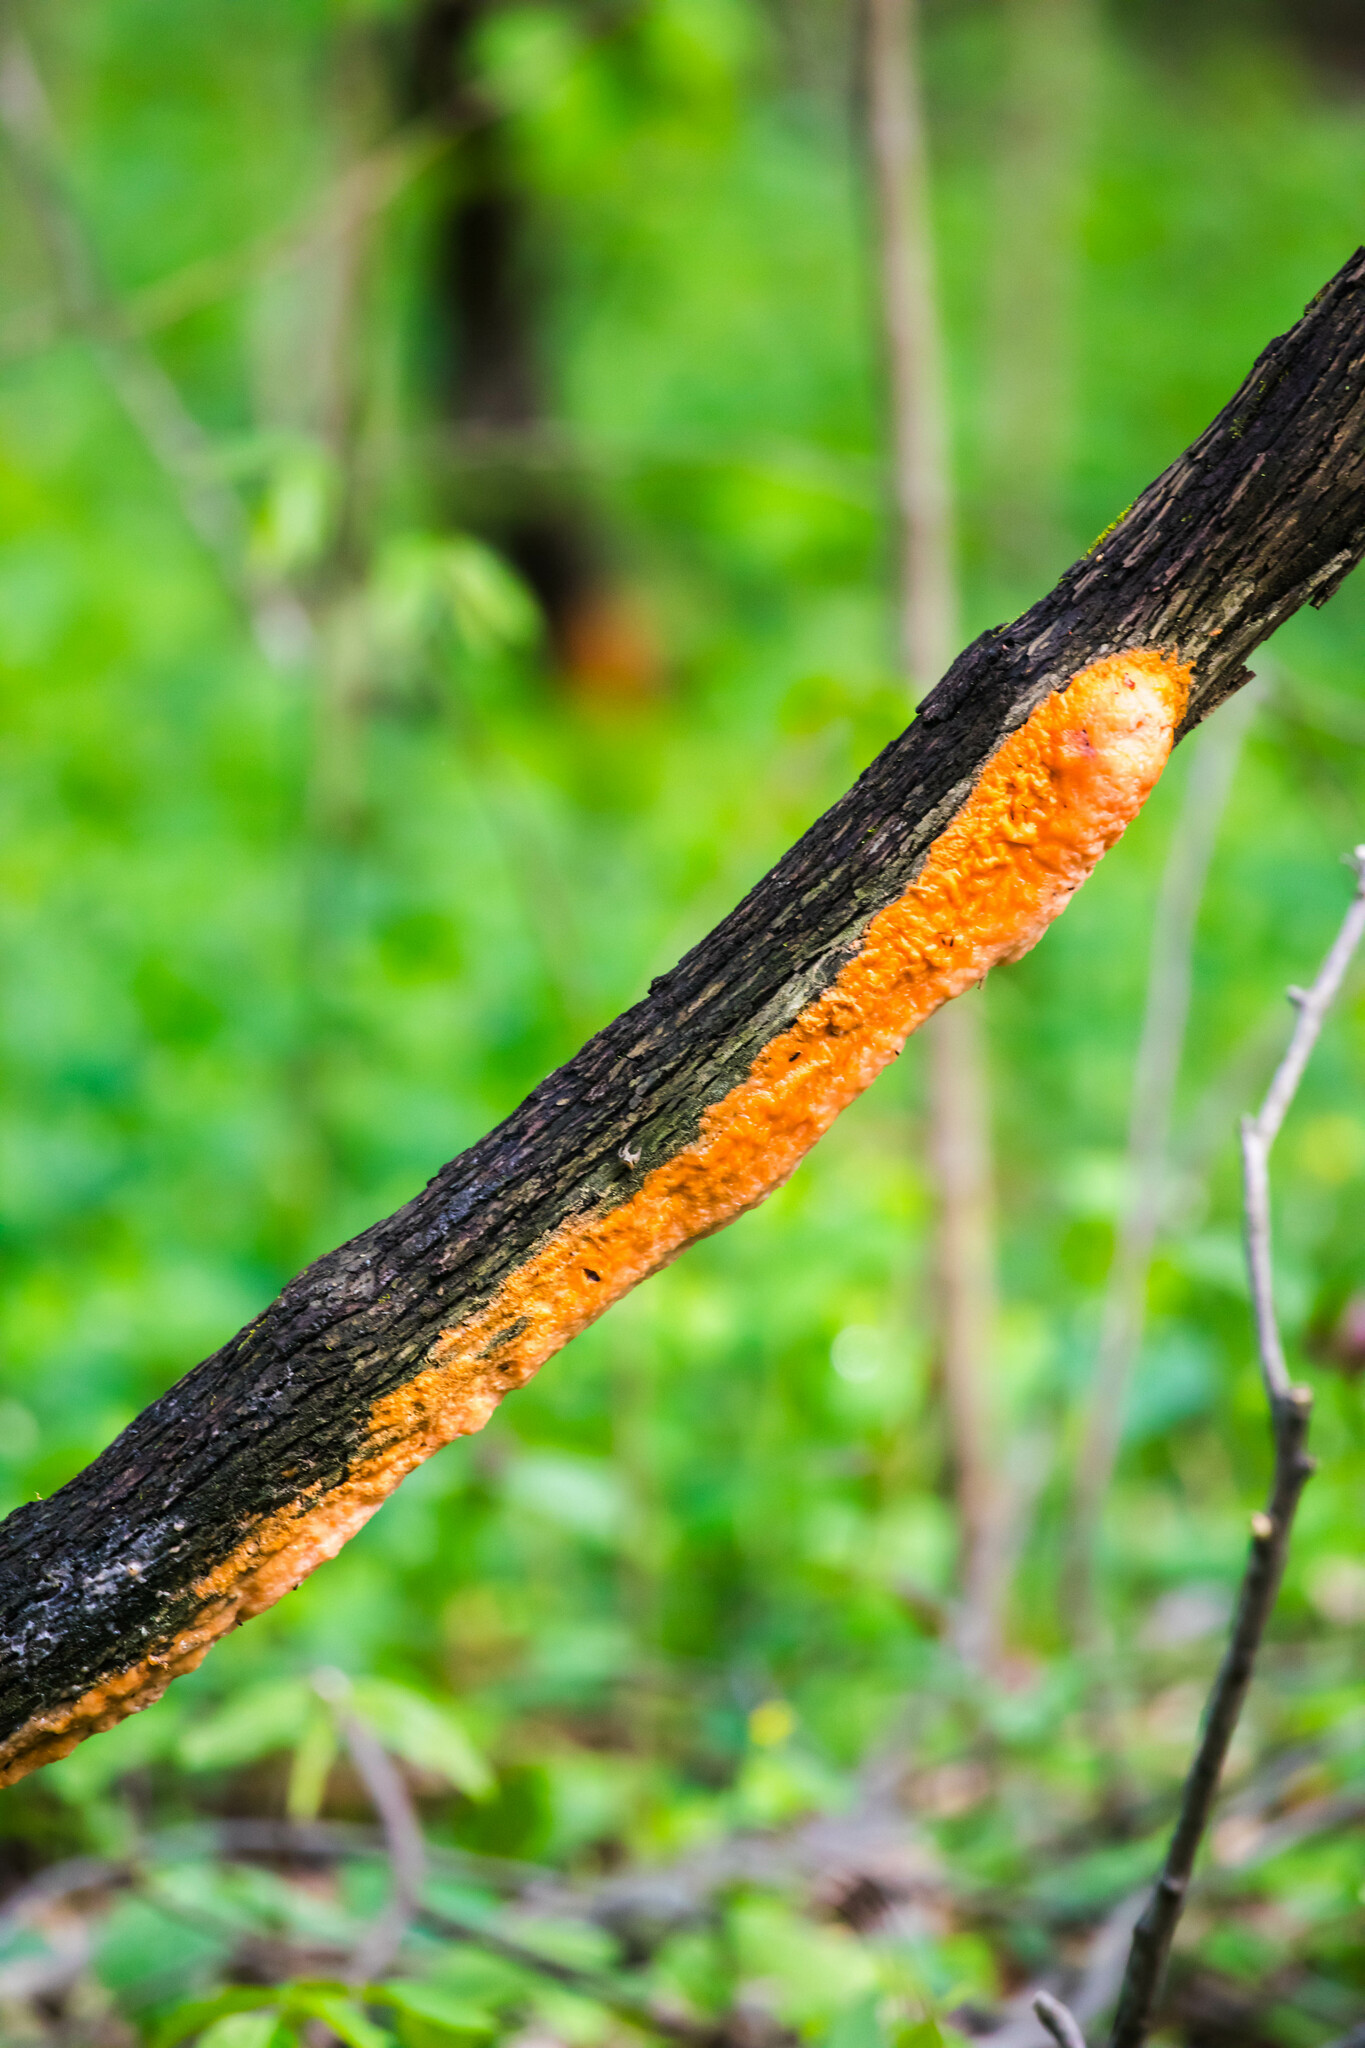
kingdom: Fungi
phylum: Ascomycota
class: Sordariomycetes
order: Hypocreales
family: Nectriaceae
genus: Fusicolla
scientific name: Fusicolla merismoides
